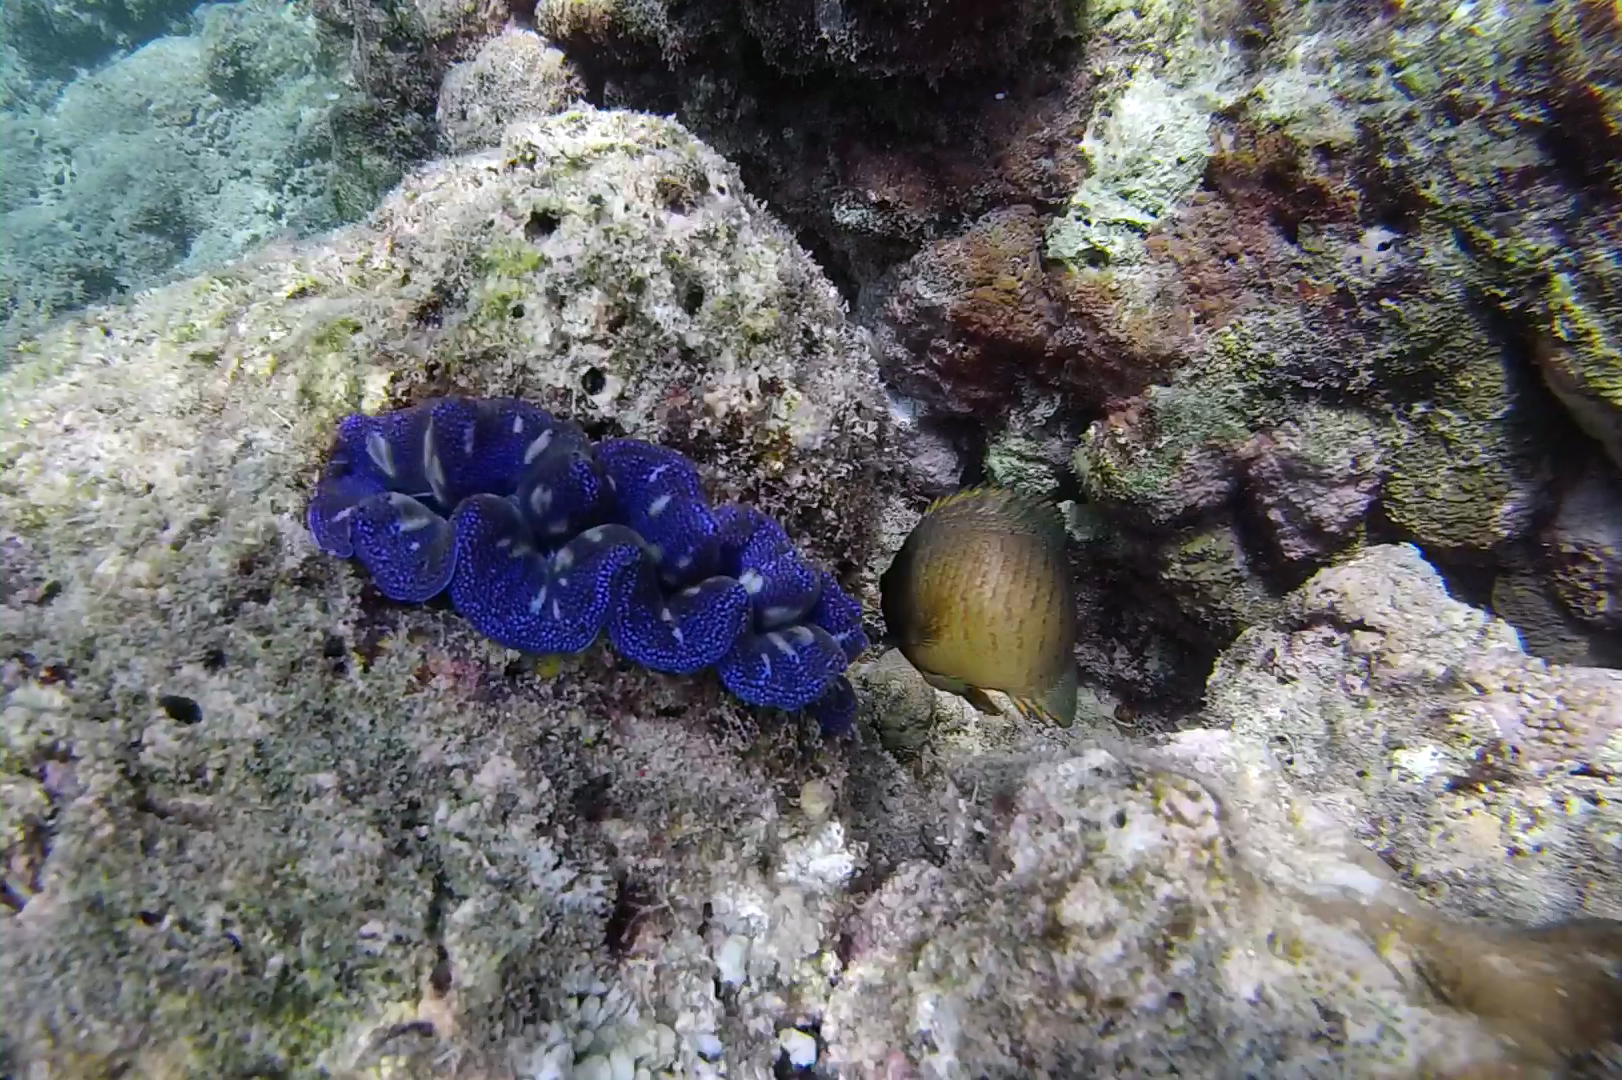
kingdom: Animalia
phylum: Chordata
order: Perciformes
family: Pomacanthidae
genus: Centropyge
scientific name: Centropyge eibli
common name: Eibl's angelfish
